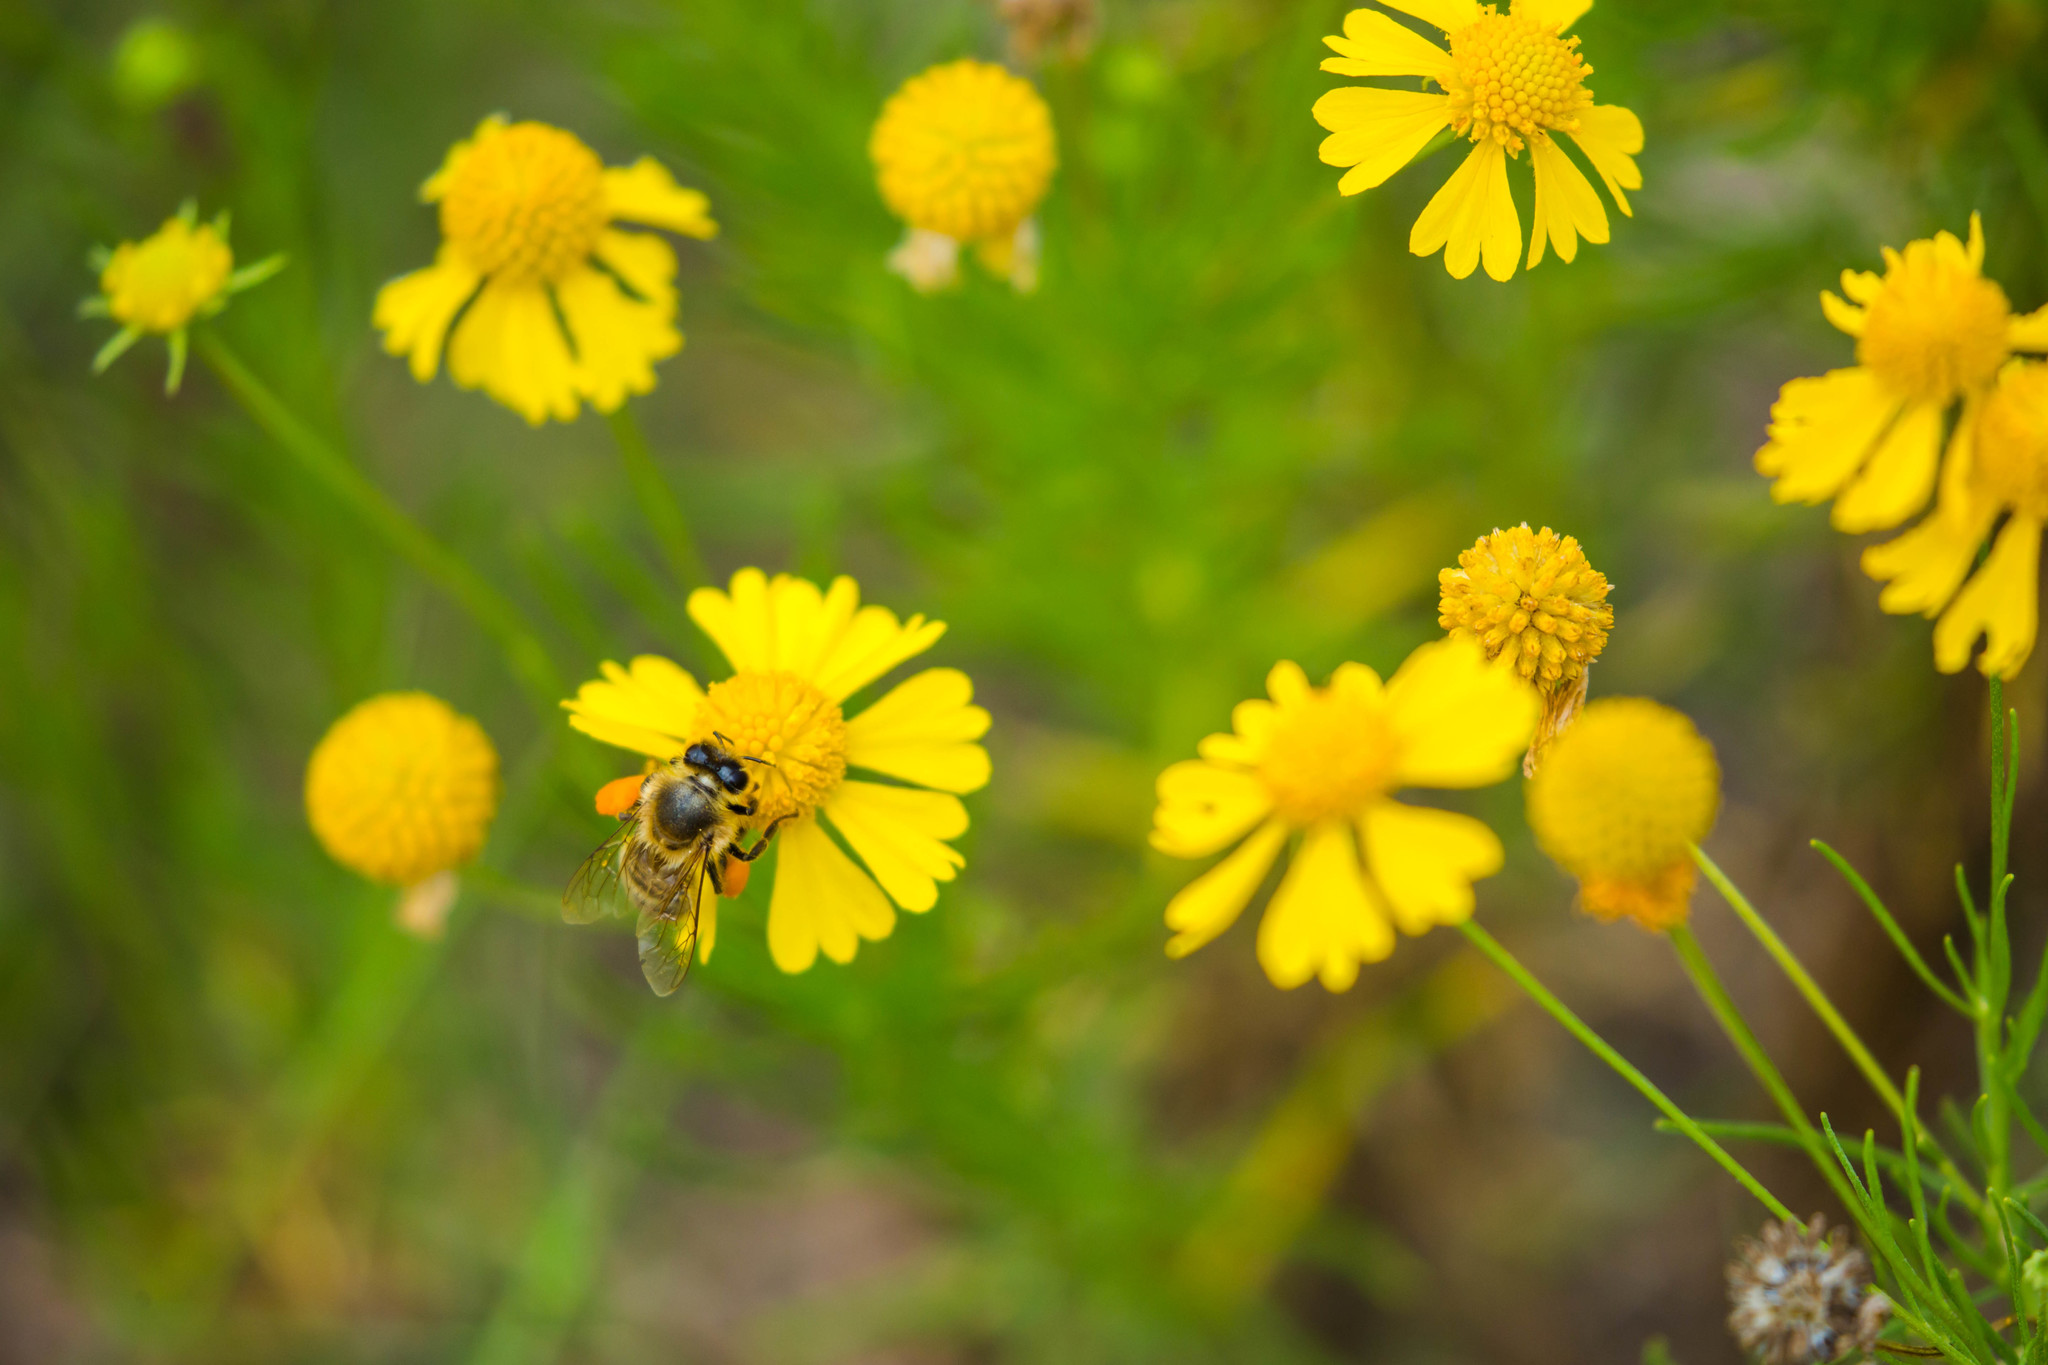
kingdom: Animalia
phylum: Arthropoda
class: Insecta
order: Hymenoptera
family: Apidae
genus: Apis
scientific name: Apis mellifera
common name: Honey bee
